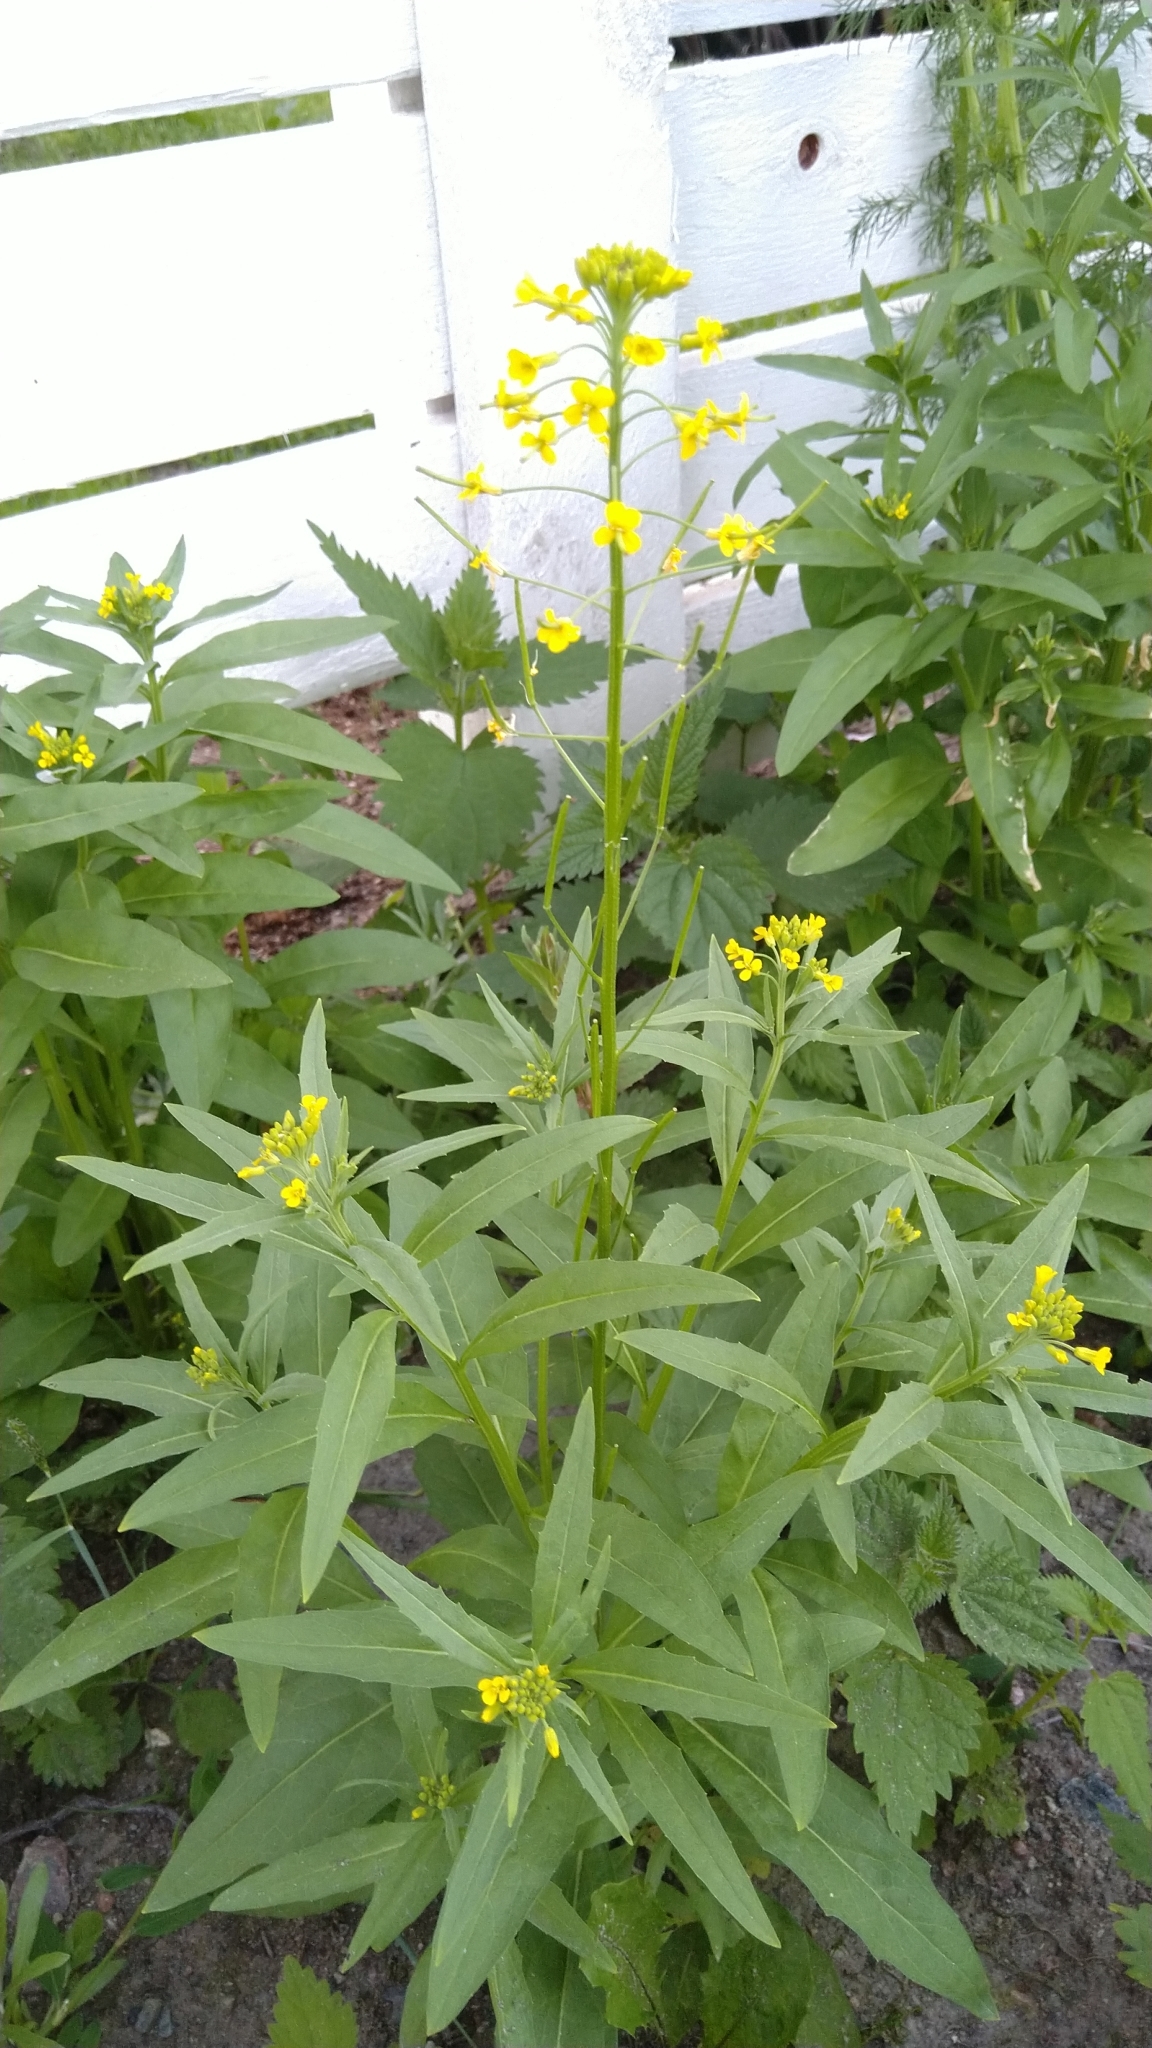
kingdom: Plantae
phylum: Tracheophyta
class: Magnoliopsida
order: Brassicales
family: Brassicaceae
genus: Erysimum
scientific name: Erysimum cheiranthoides
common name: Treacle mustard
